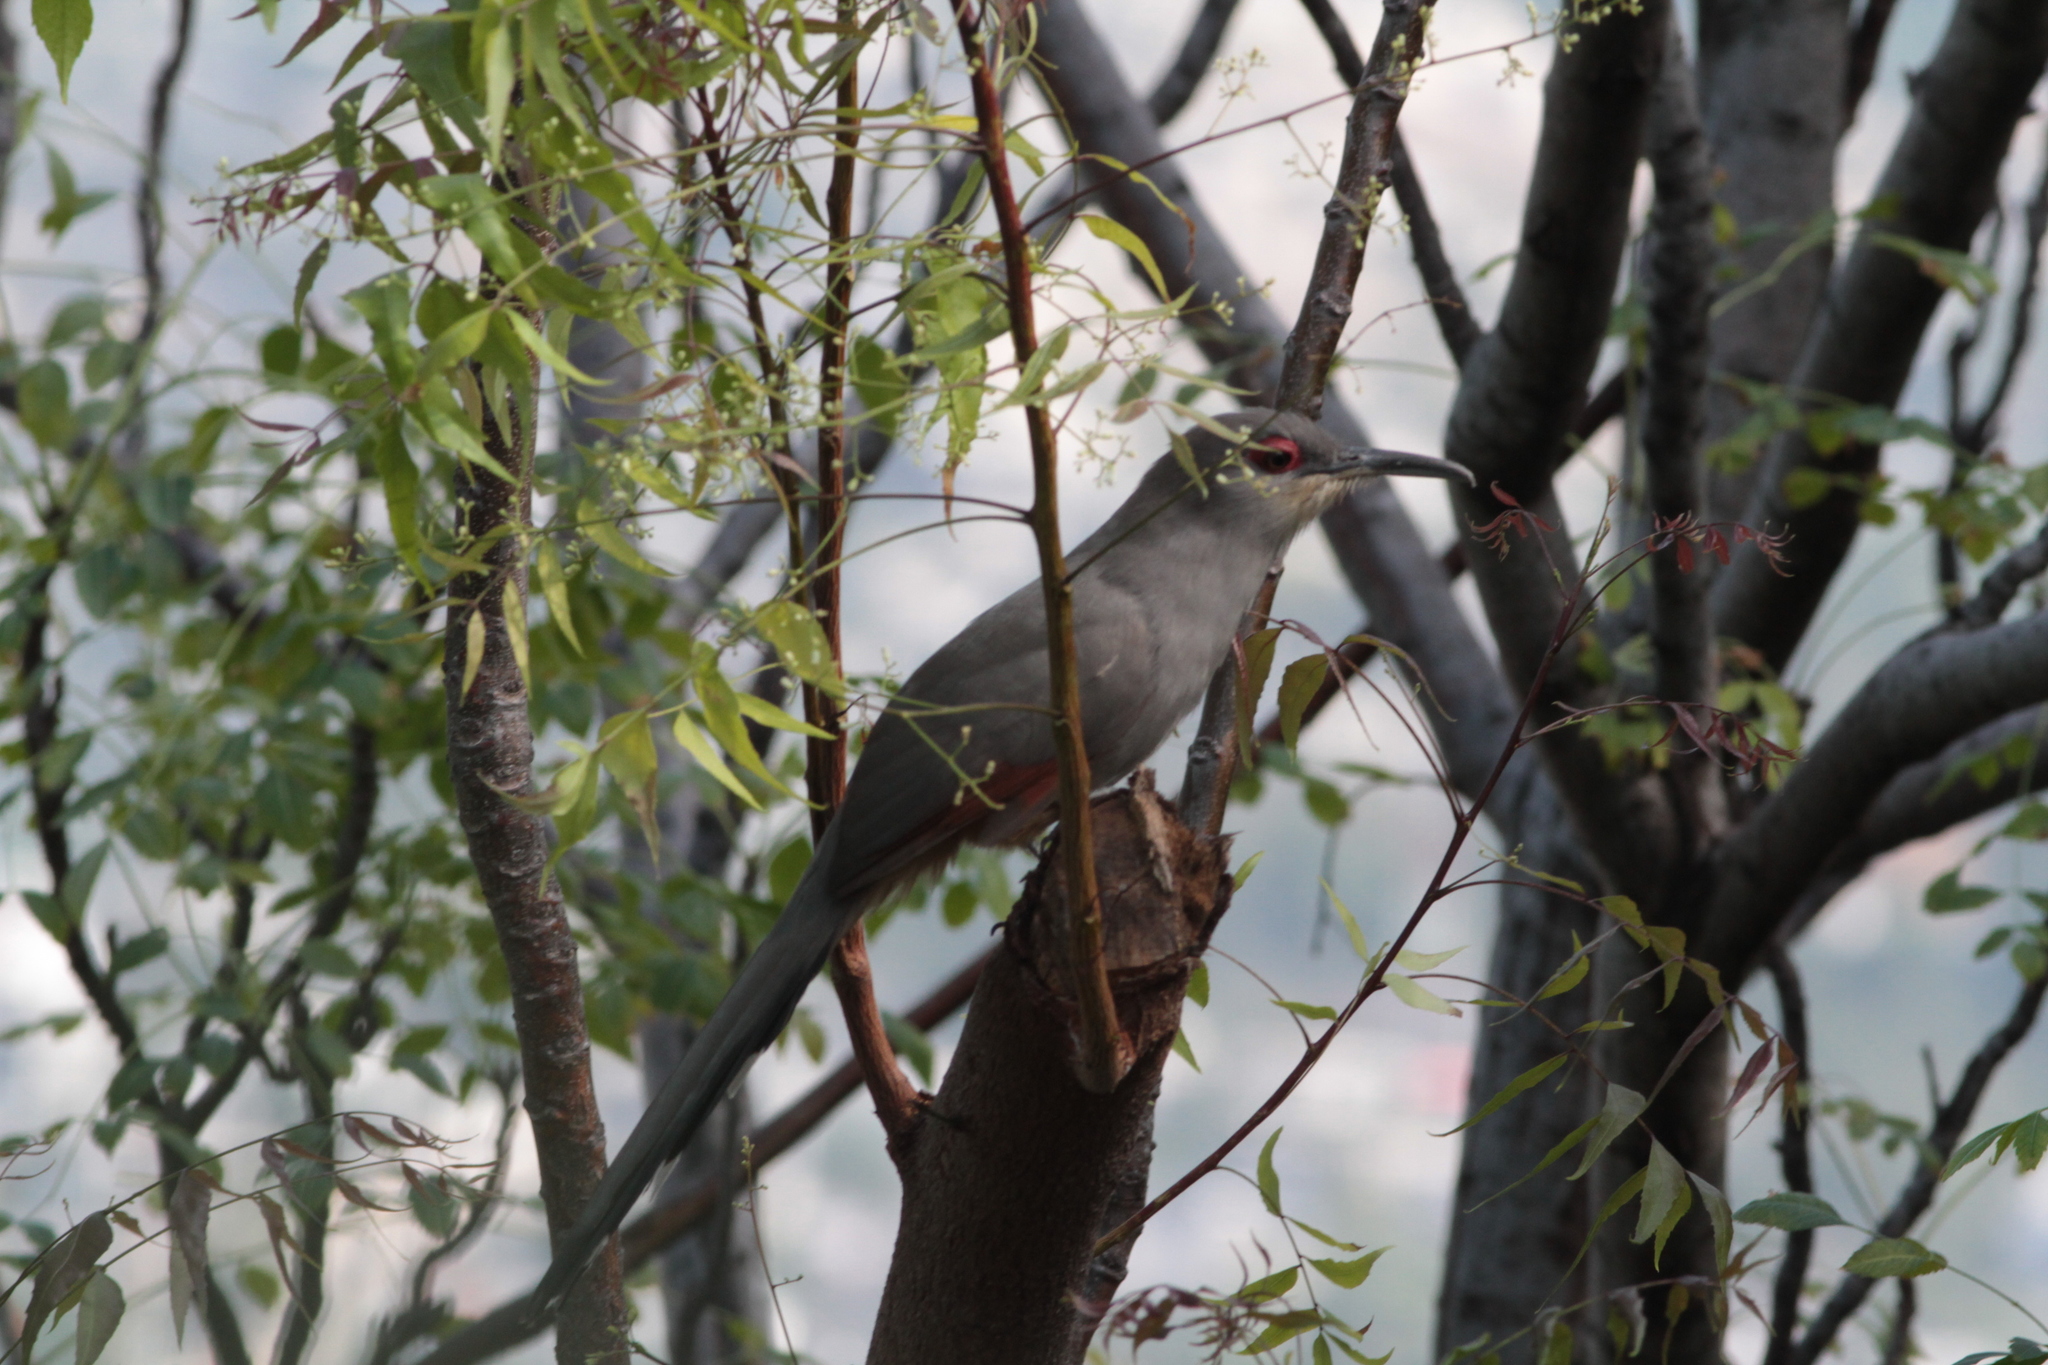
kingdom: Animalia
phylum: Chordata
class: Aves
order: Cuculiformes
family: Cuculidae
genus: Saurothera
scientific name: Saurothera longirostris
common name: Hispaniolan lizard-cuckoo
